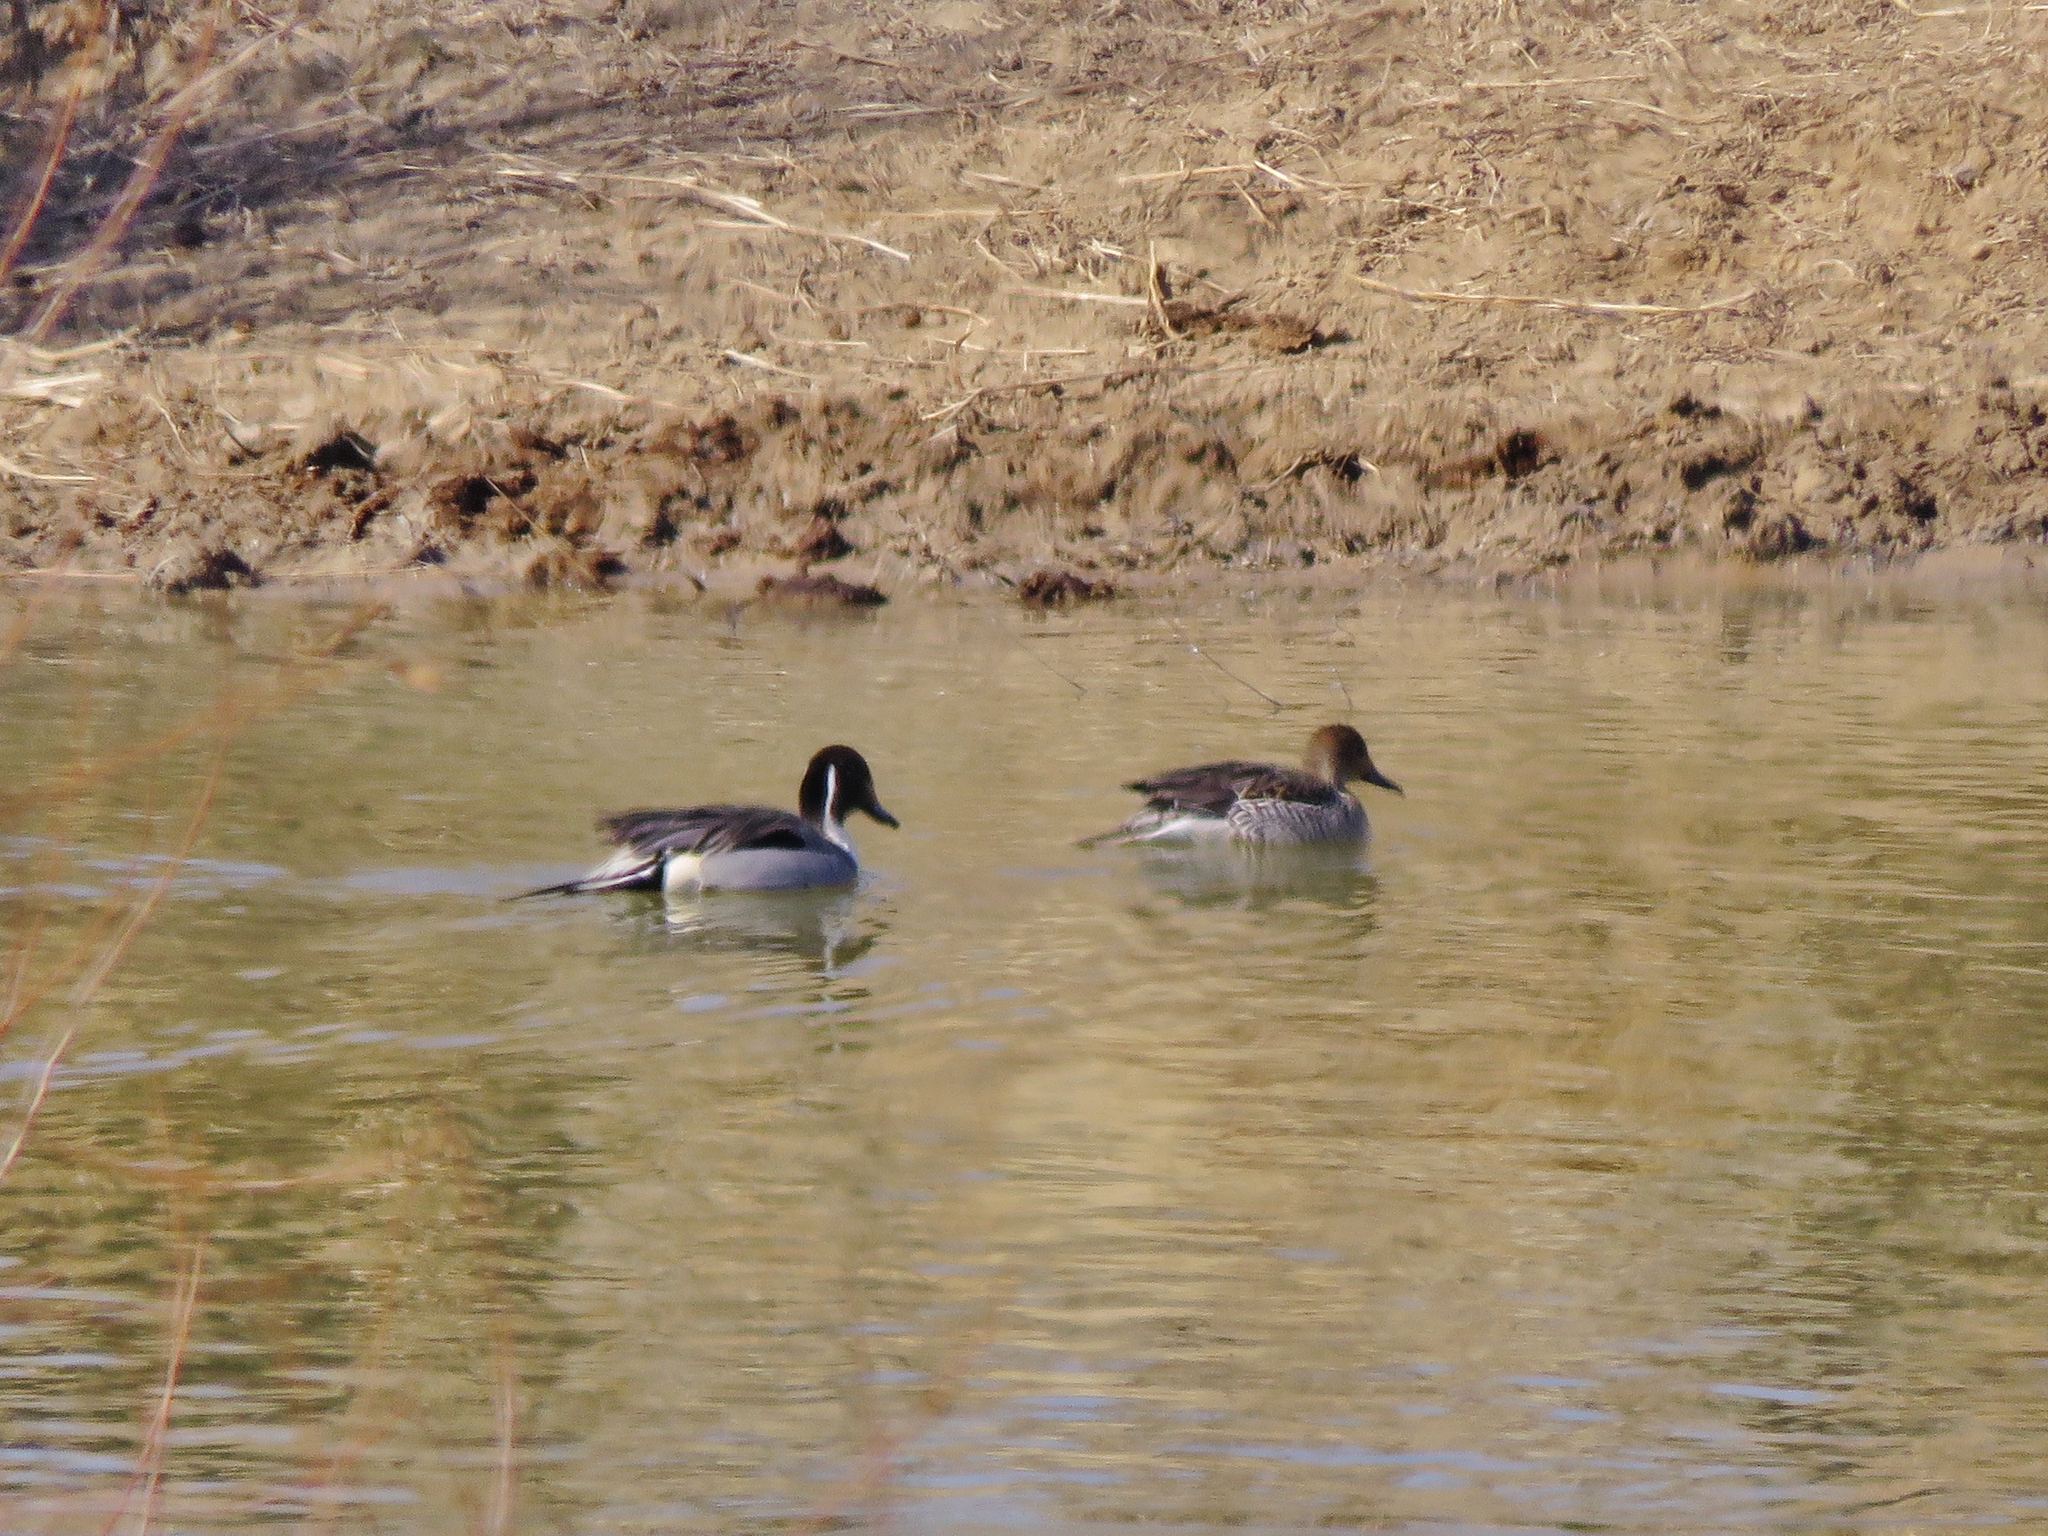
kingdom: Animalia
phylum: Chordata
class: Aves
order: Anseriformes
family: Anatidae
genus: Anas
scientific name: Anas acuta
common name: Northern pintail
